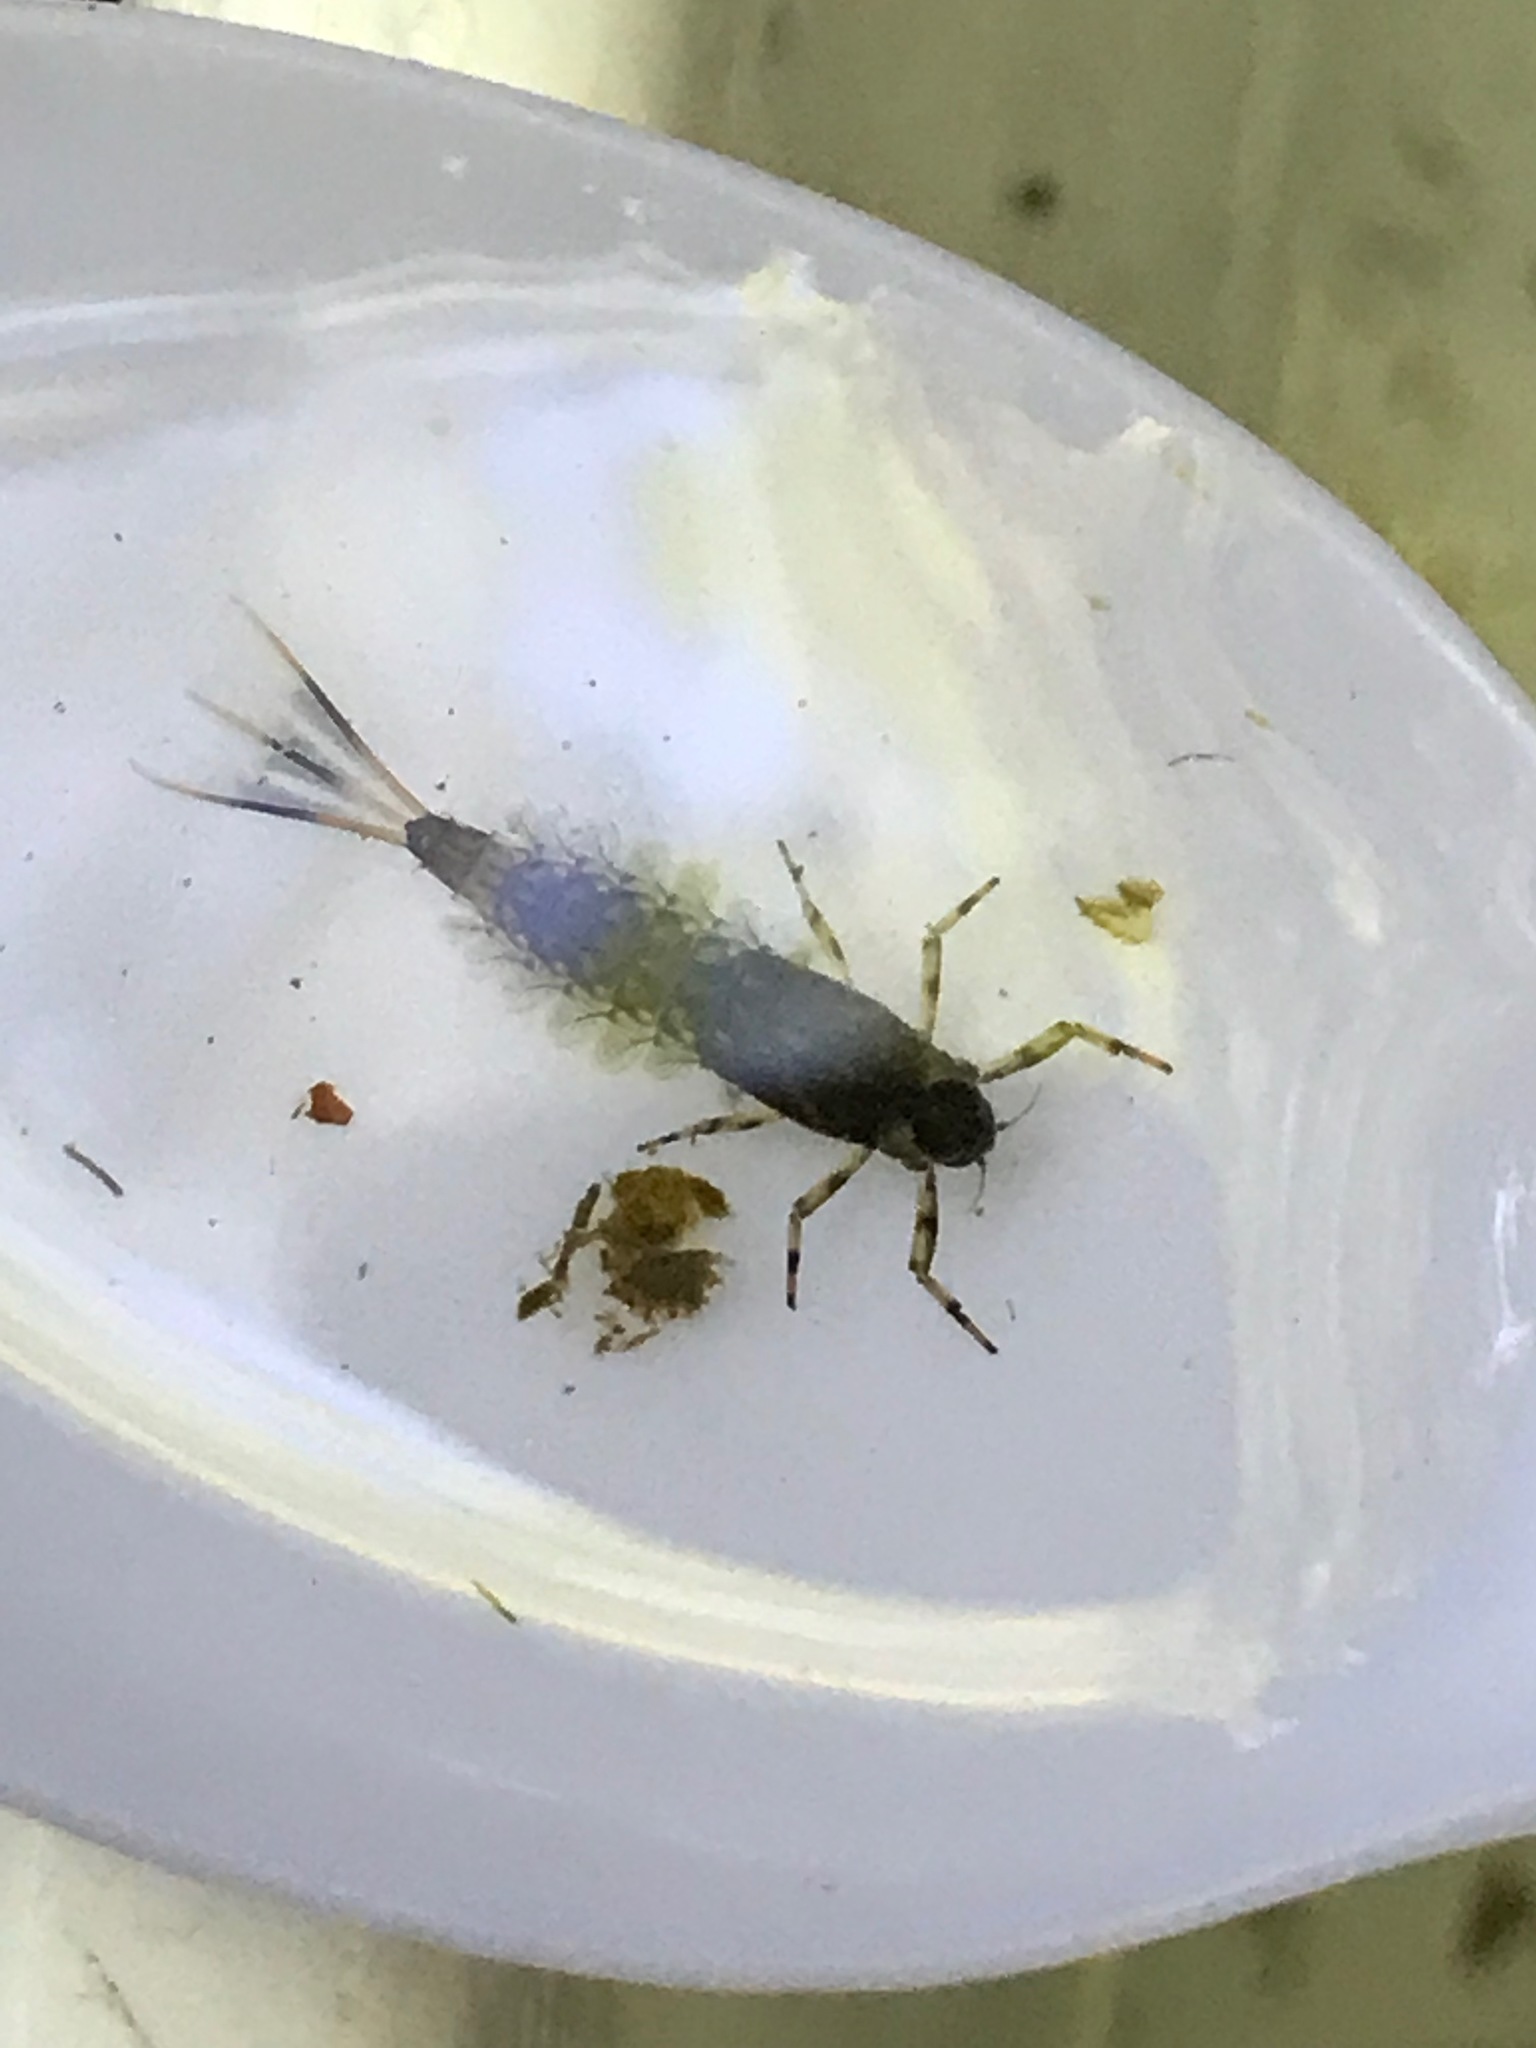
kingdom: Animalia
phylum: Arthropoda
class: Insecta
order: Ephemeroptera
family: Nesameletidae
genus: Nesameletus
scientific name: Nesameletus ornatus
